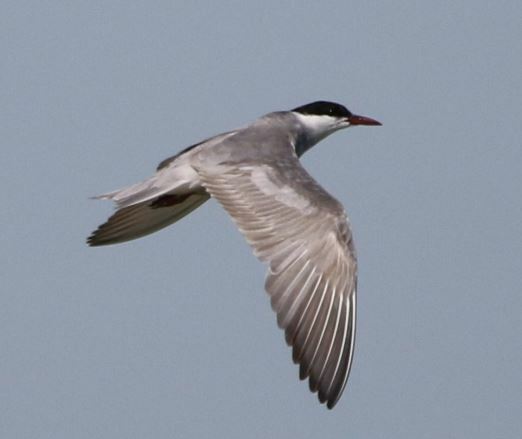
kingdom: Animalia
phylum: Chordata
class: Aves
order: Charadriiformes
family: Laridae
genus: Chlidonias
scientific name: Chlidonias hybrida
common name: Whiskered tern
